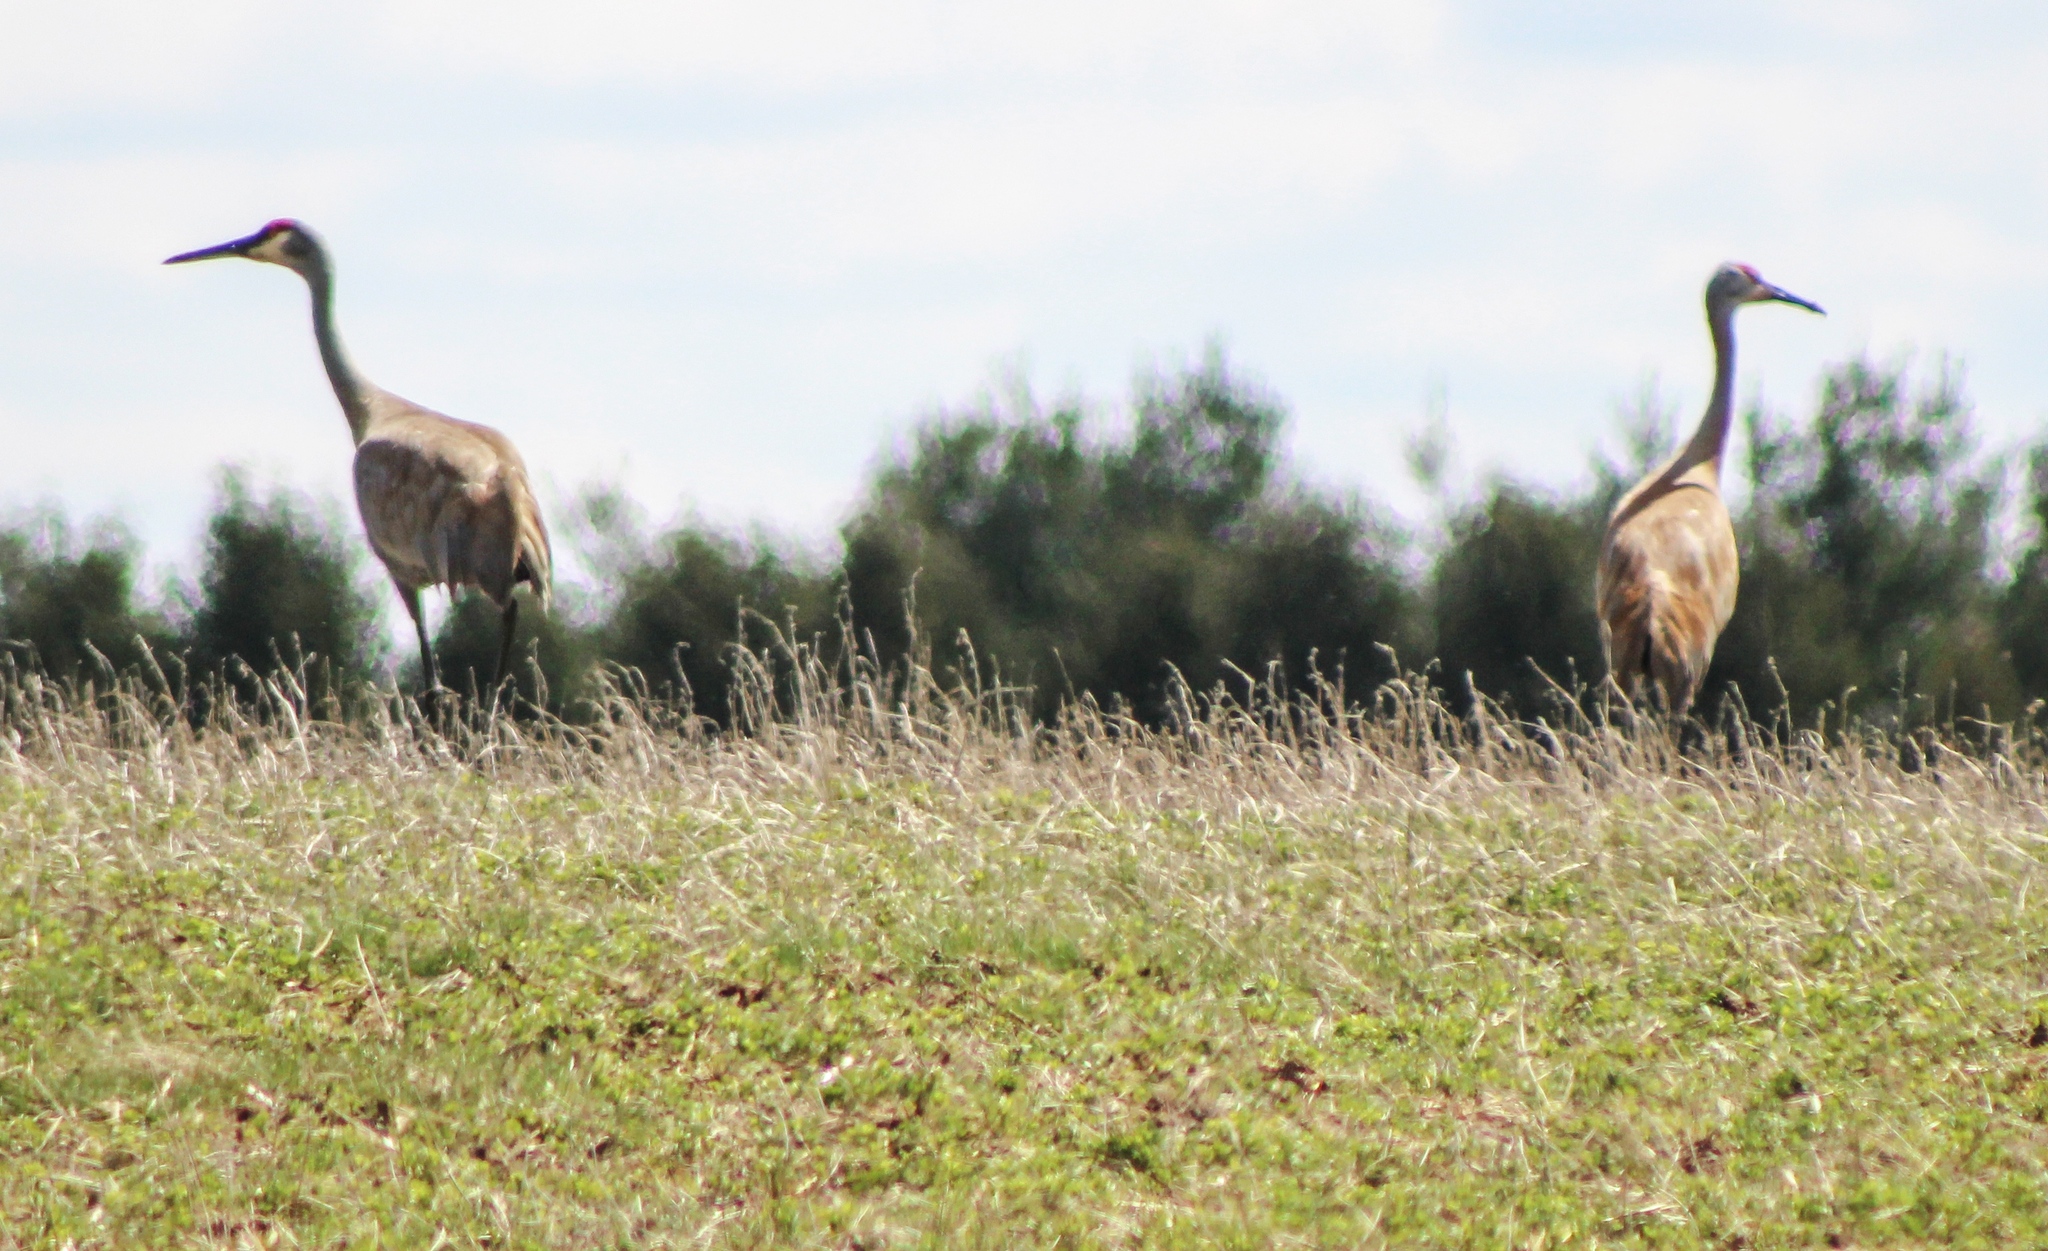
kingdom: Animalia
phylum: Chordata
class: Aves
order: Gruiformes
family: Gruidae
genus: Grus
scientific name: Grus canadensis
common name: Sandhill crane
